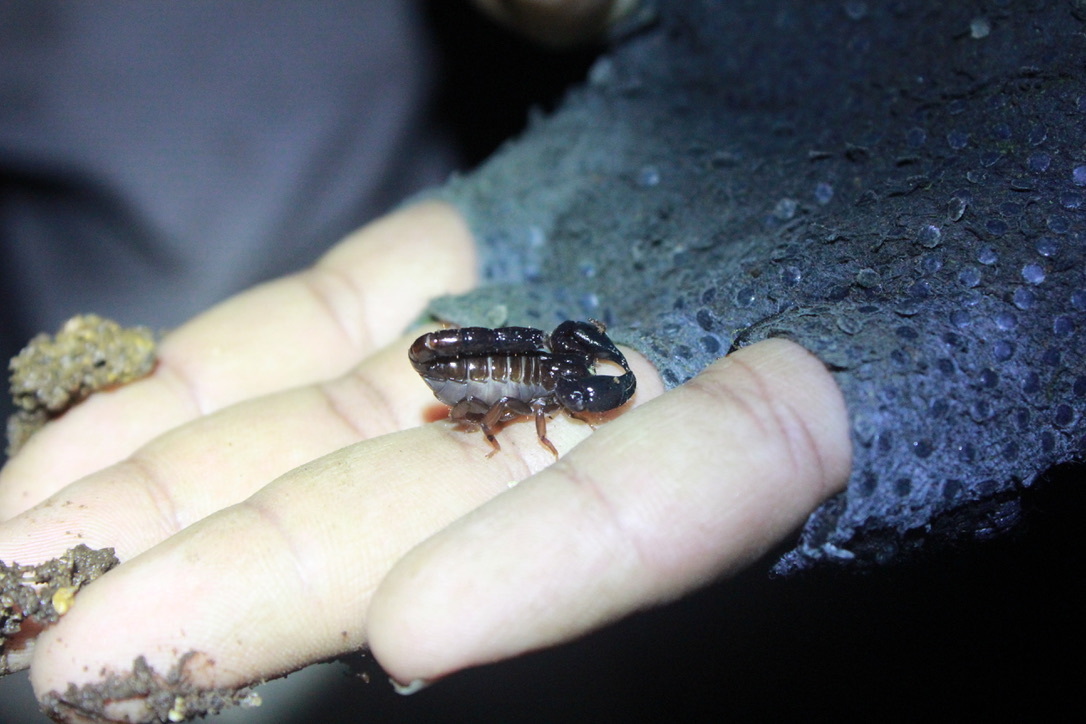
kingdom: Animalia
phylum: Arthropoda
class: Arachnida
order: Scorpiones
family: Chactidae
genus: Broteochactas
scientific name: Broteochactas nitidus
